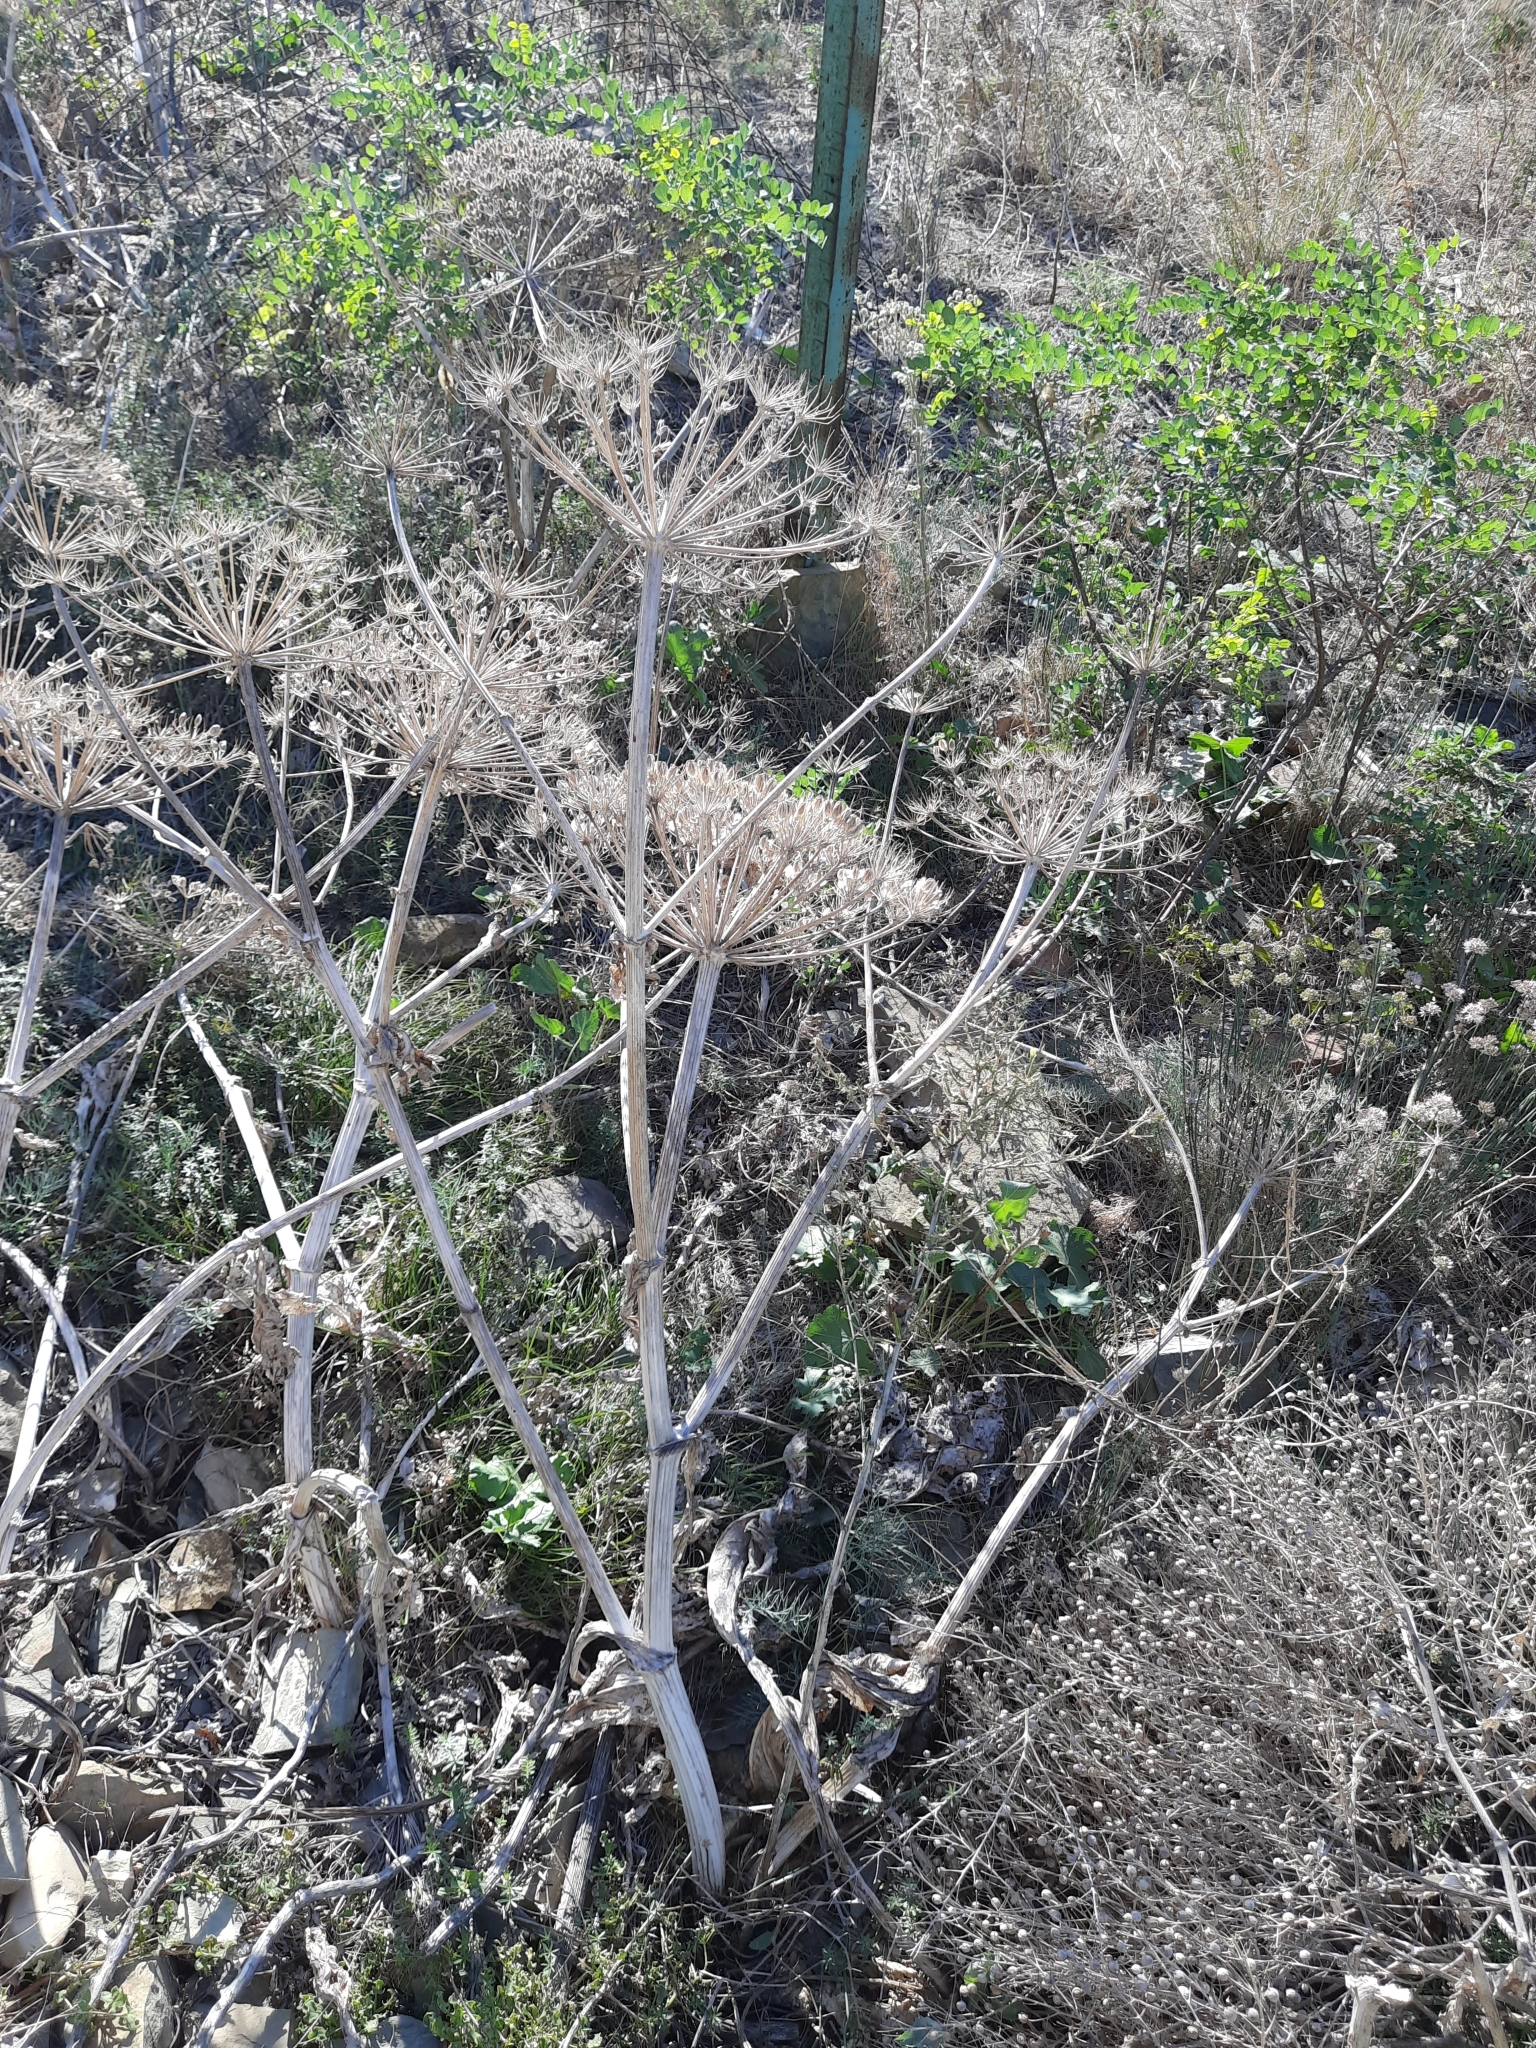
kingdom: Plantae
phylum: Tracheophyta
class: Magnoliopsida
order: Apiales
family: Apiaceae
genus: Heracleum
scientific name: Heracleum stevenii
